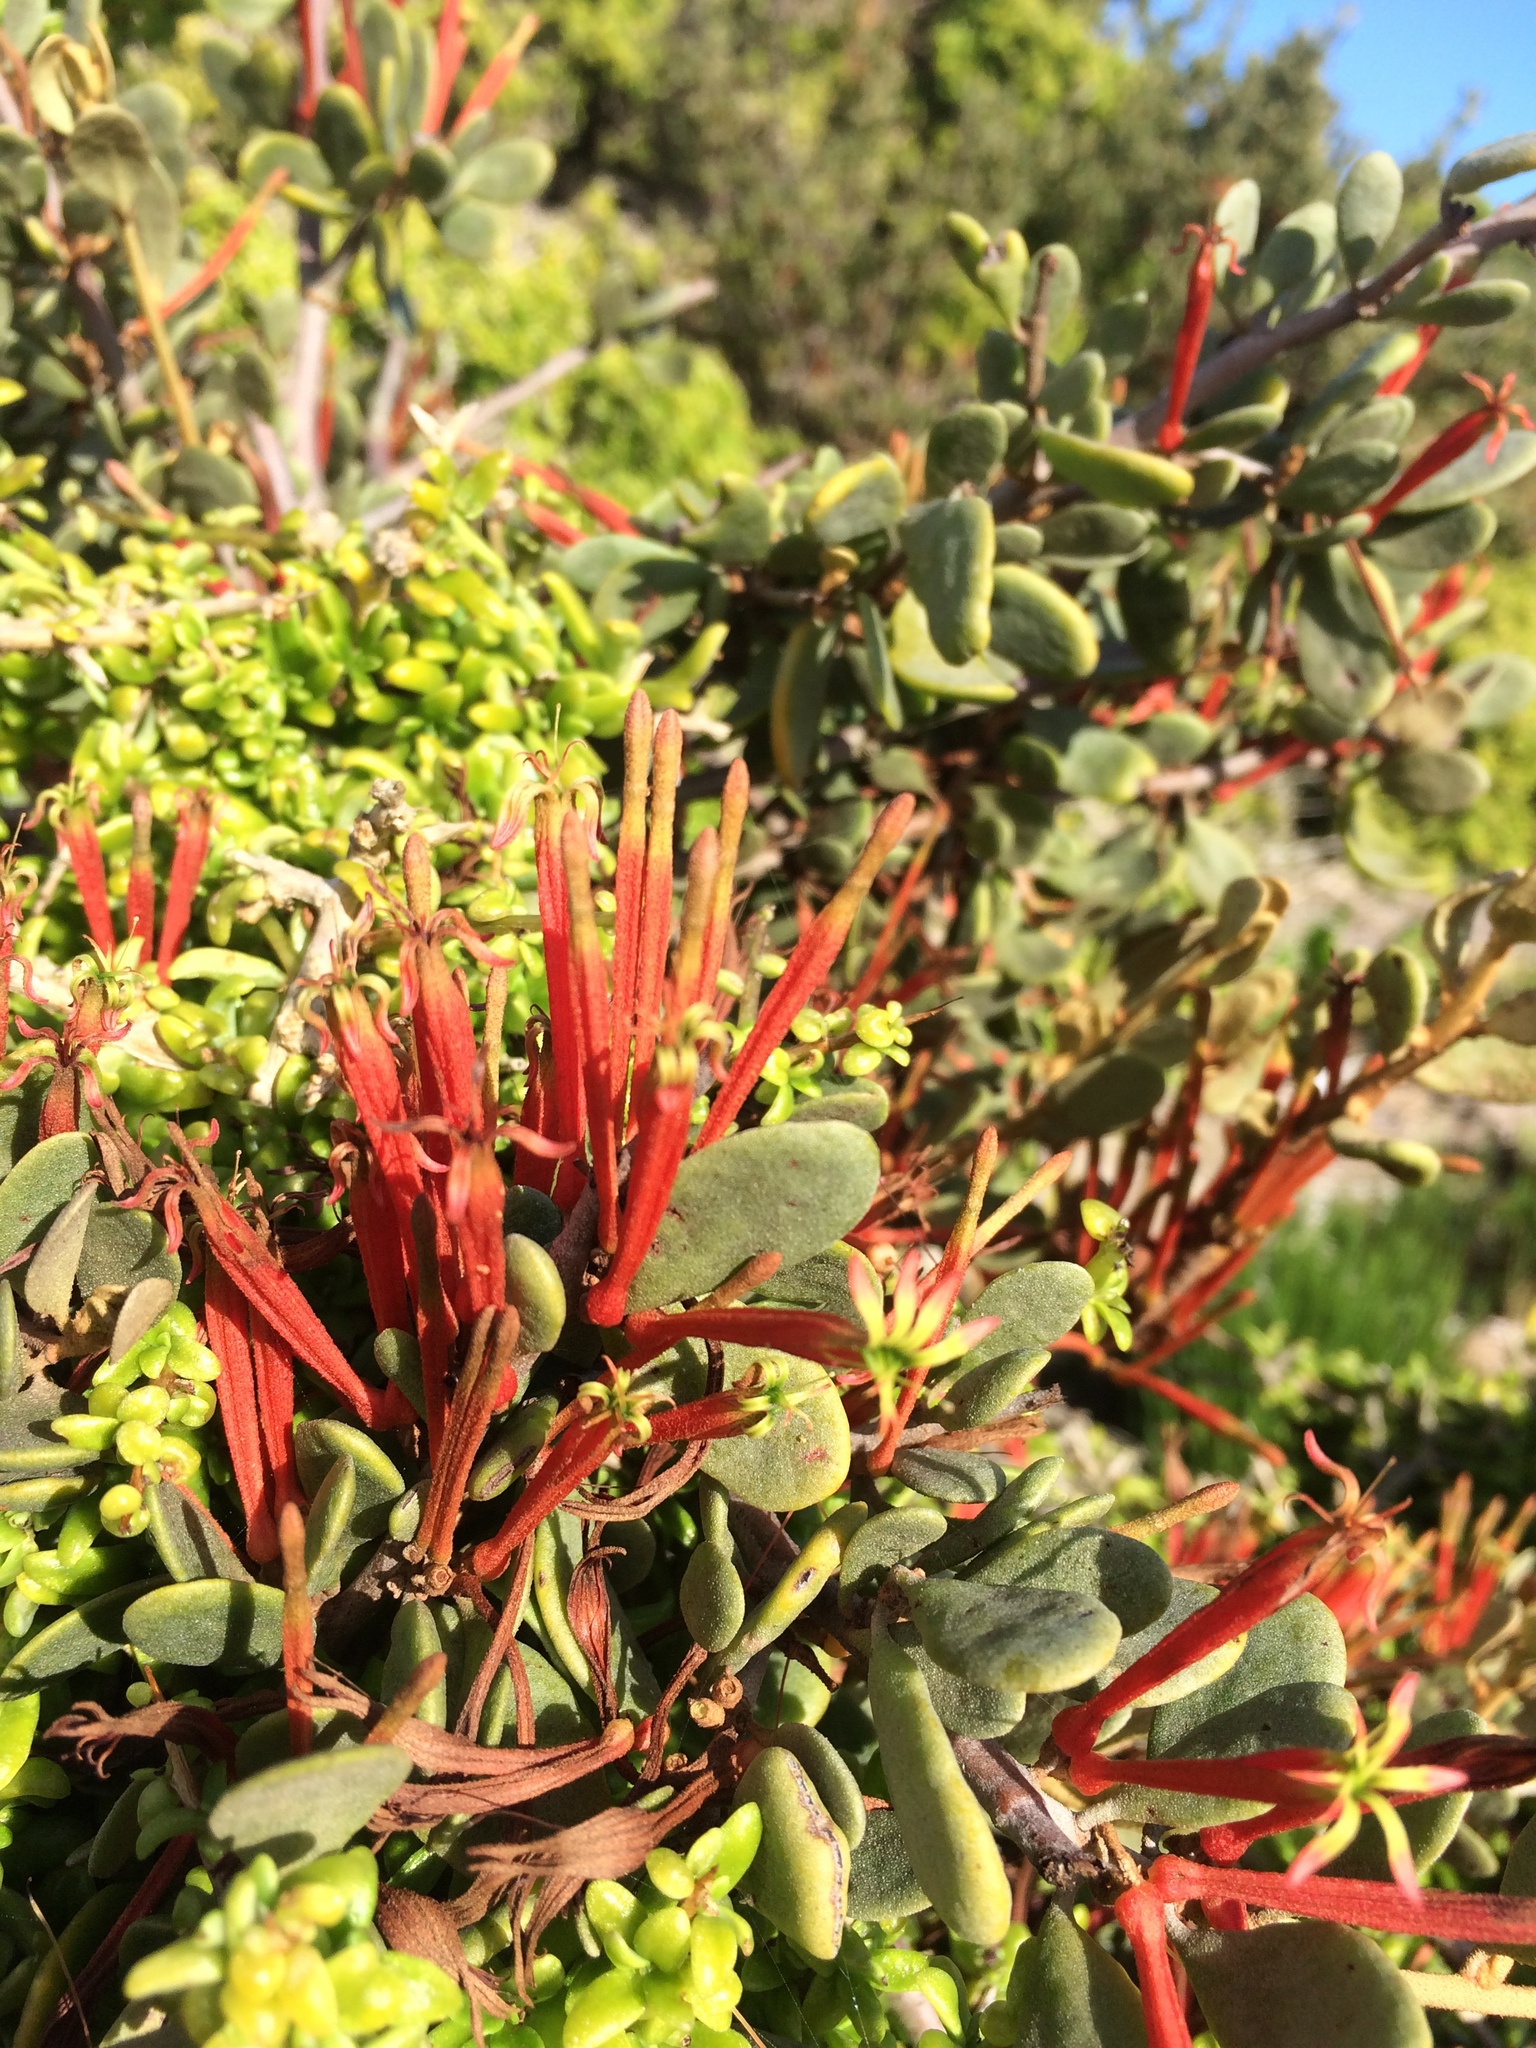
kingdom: Plantae
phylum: Tracheophyta
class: Magnoliopsida
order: Santalales
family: Loranthaceae
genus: Septulina
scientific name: Septulina glauca
